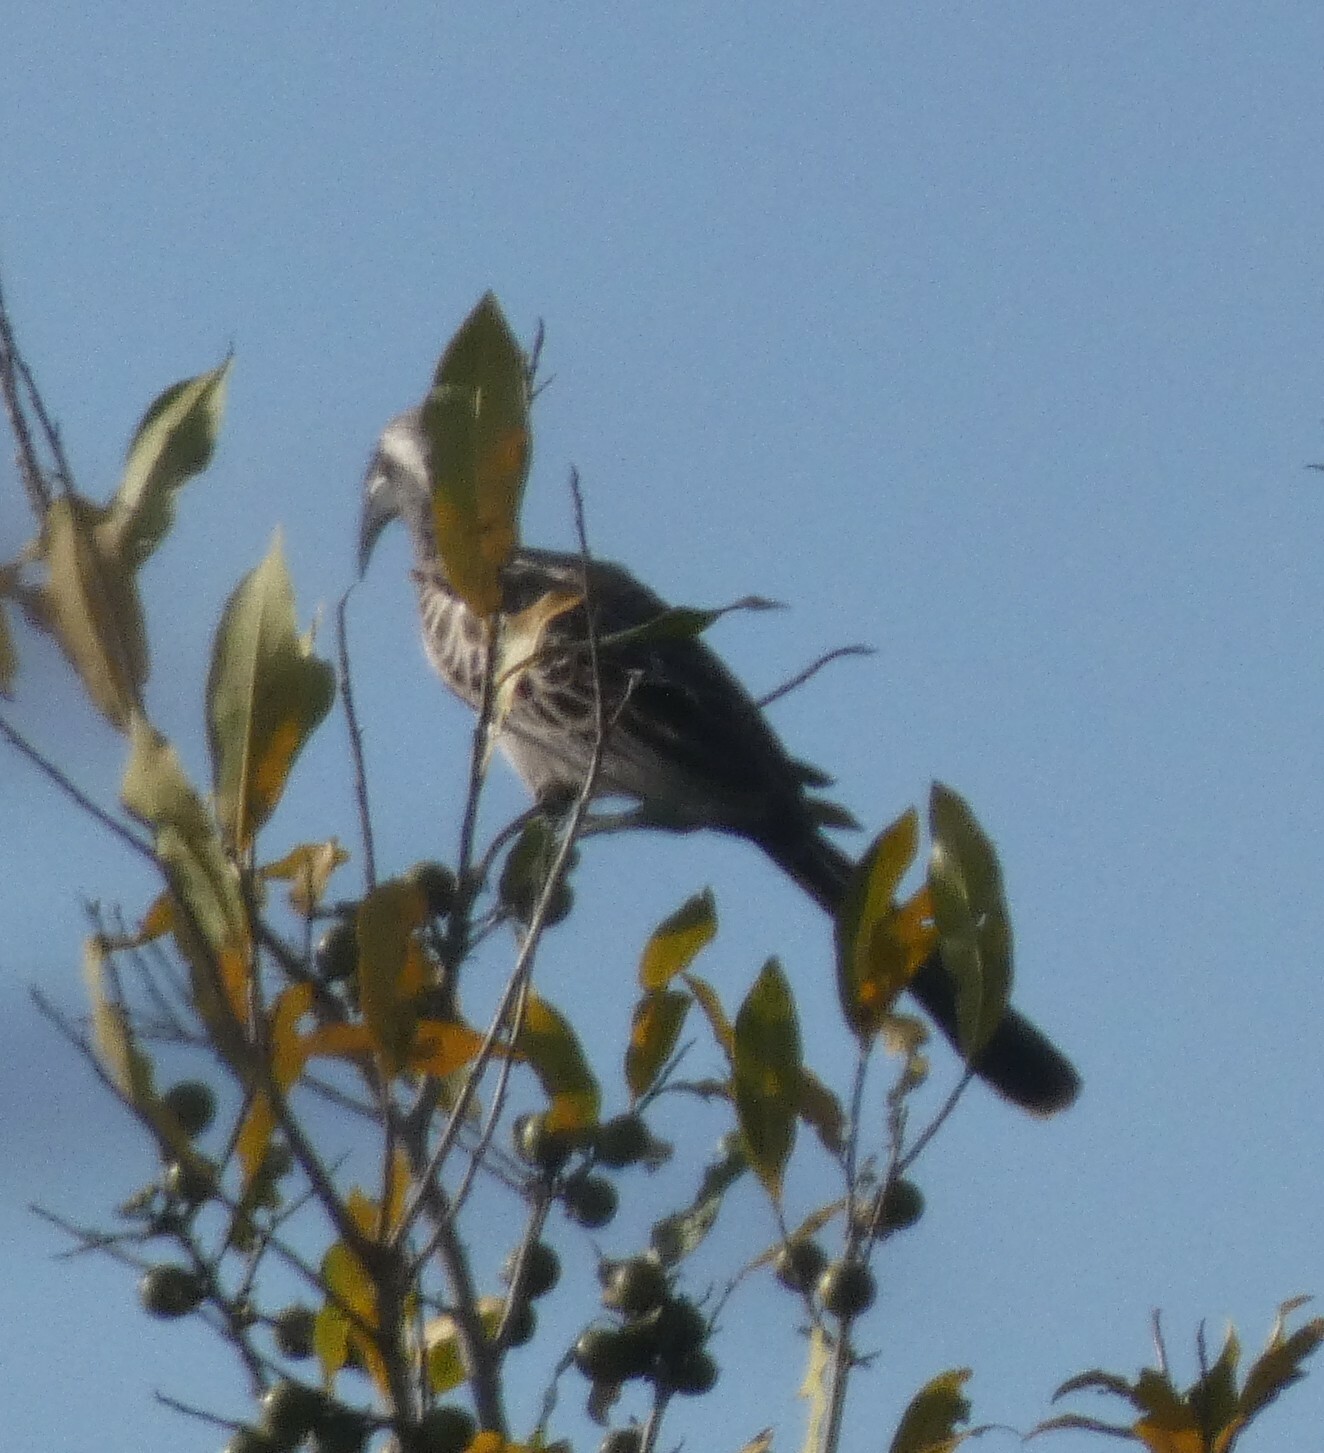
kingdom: Animalia
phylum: Chordata
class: Aves
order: Bucerotiformes
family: Bucerotidae
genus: Lophoceros
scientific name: Lophoceros nasutus
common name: African grey hornbill
